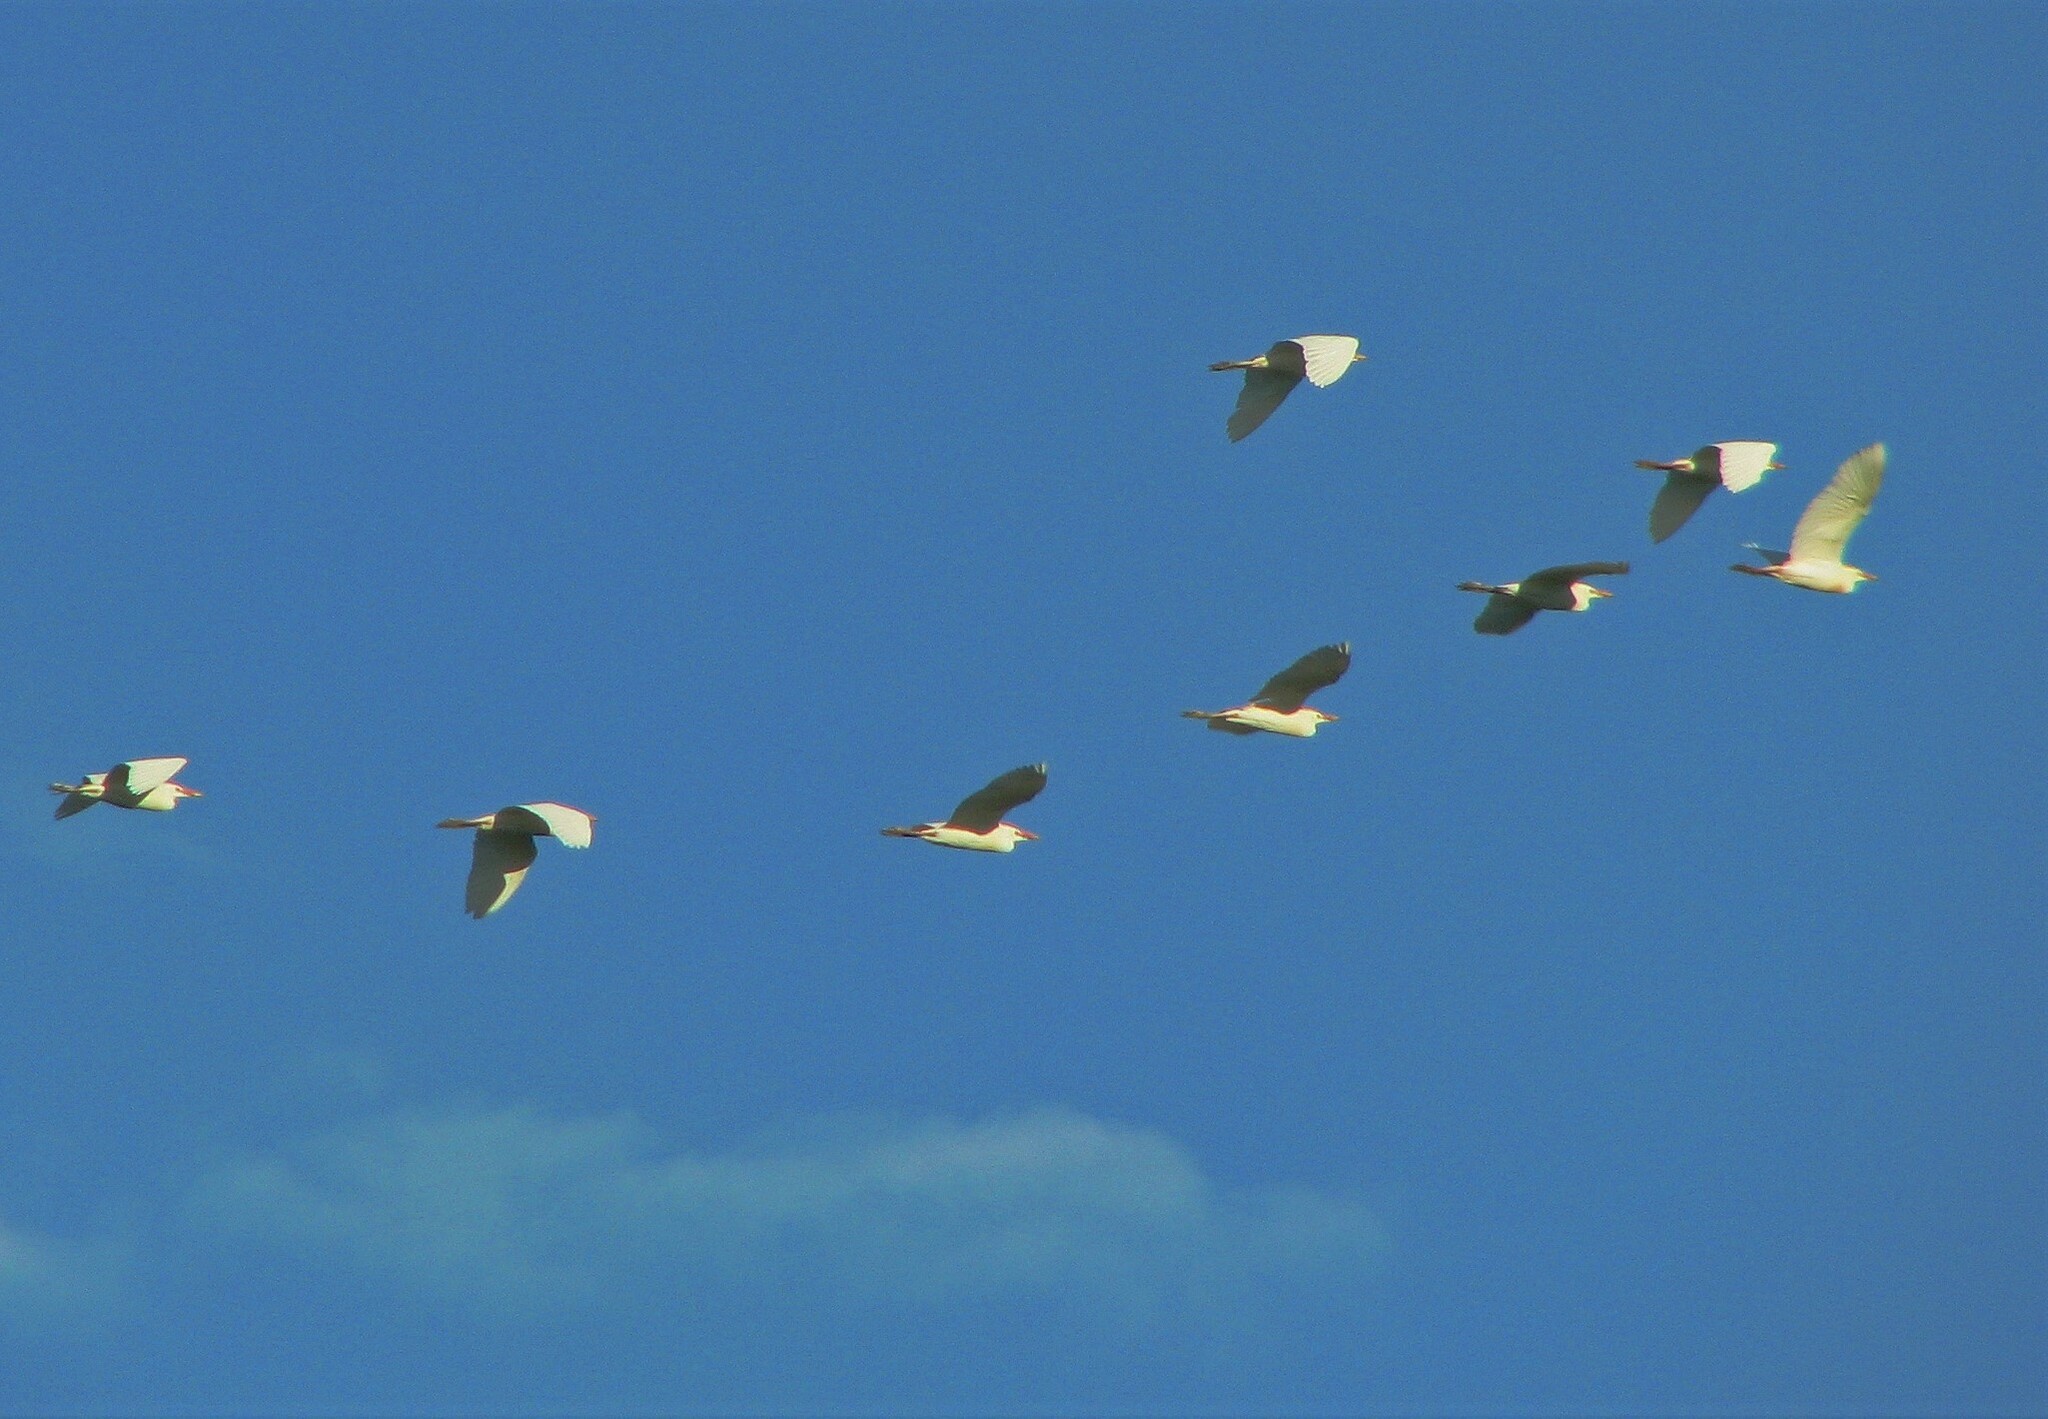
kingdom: Animalia
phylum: Chordata
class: Aves
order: Pelecaniformes
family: Ardeidae
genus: Bubulcus
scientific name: Bubulcus ibis
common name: Cattle egret
